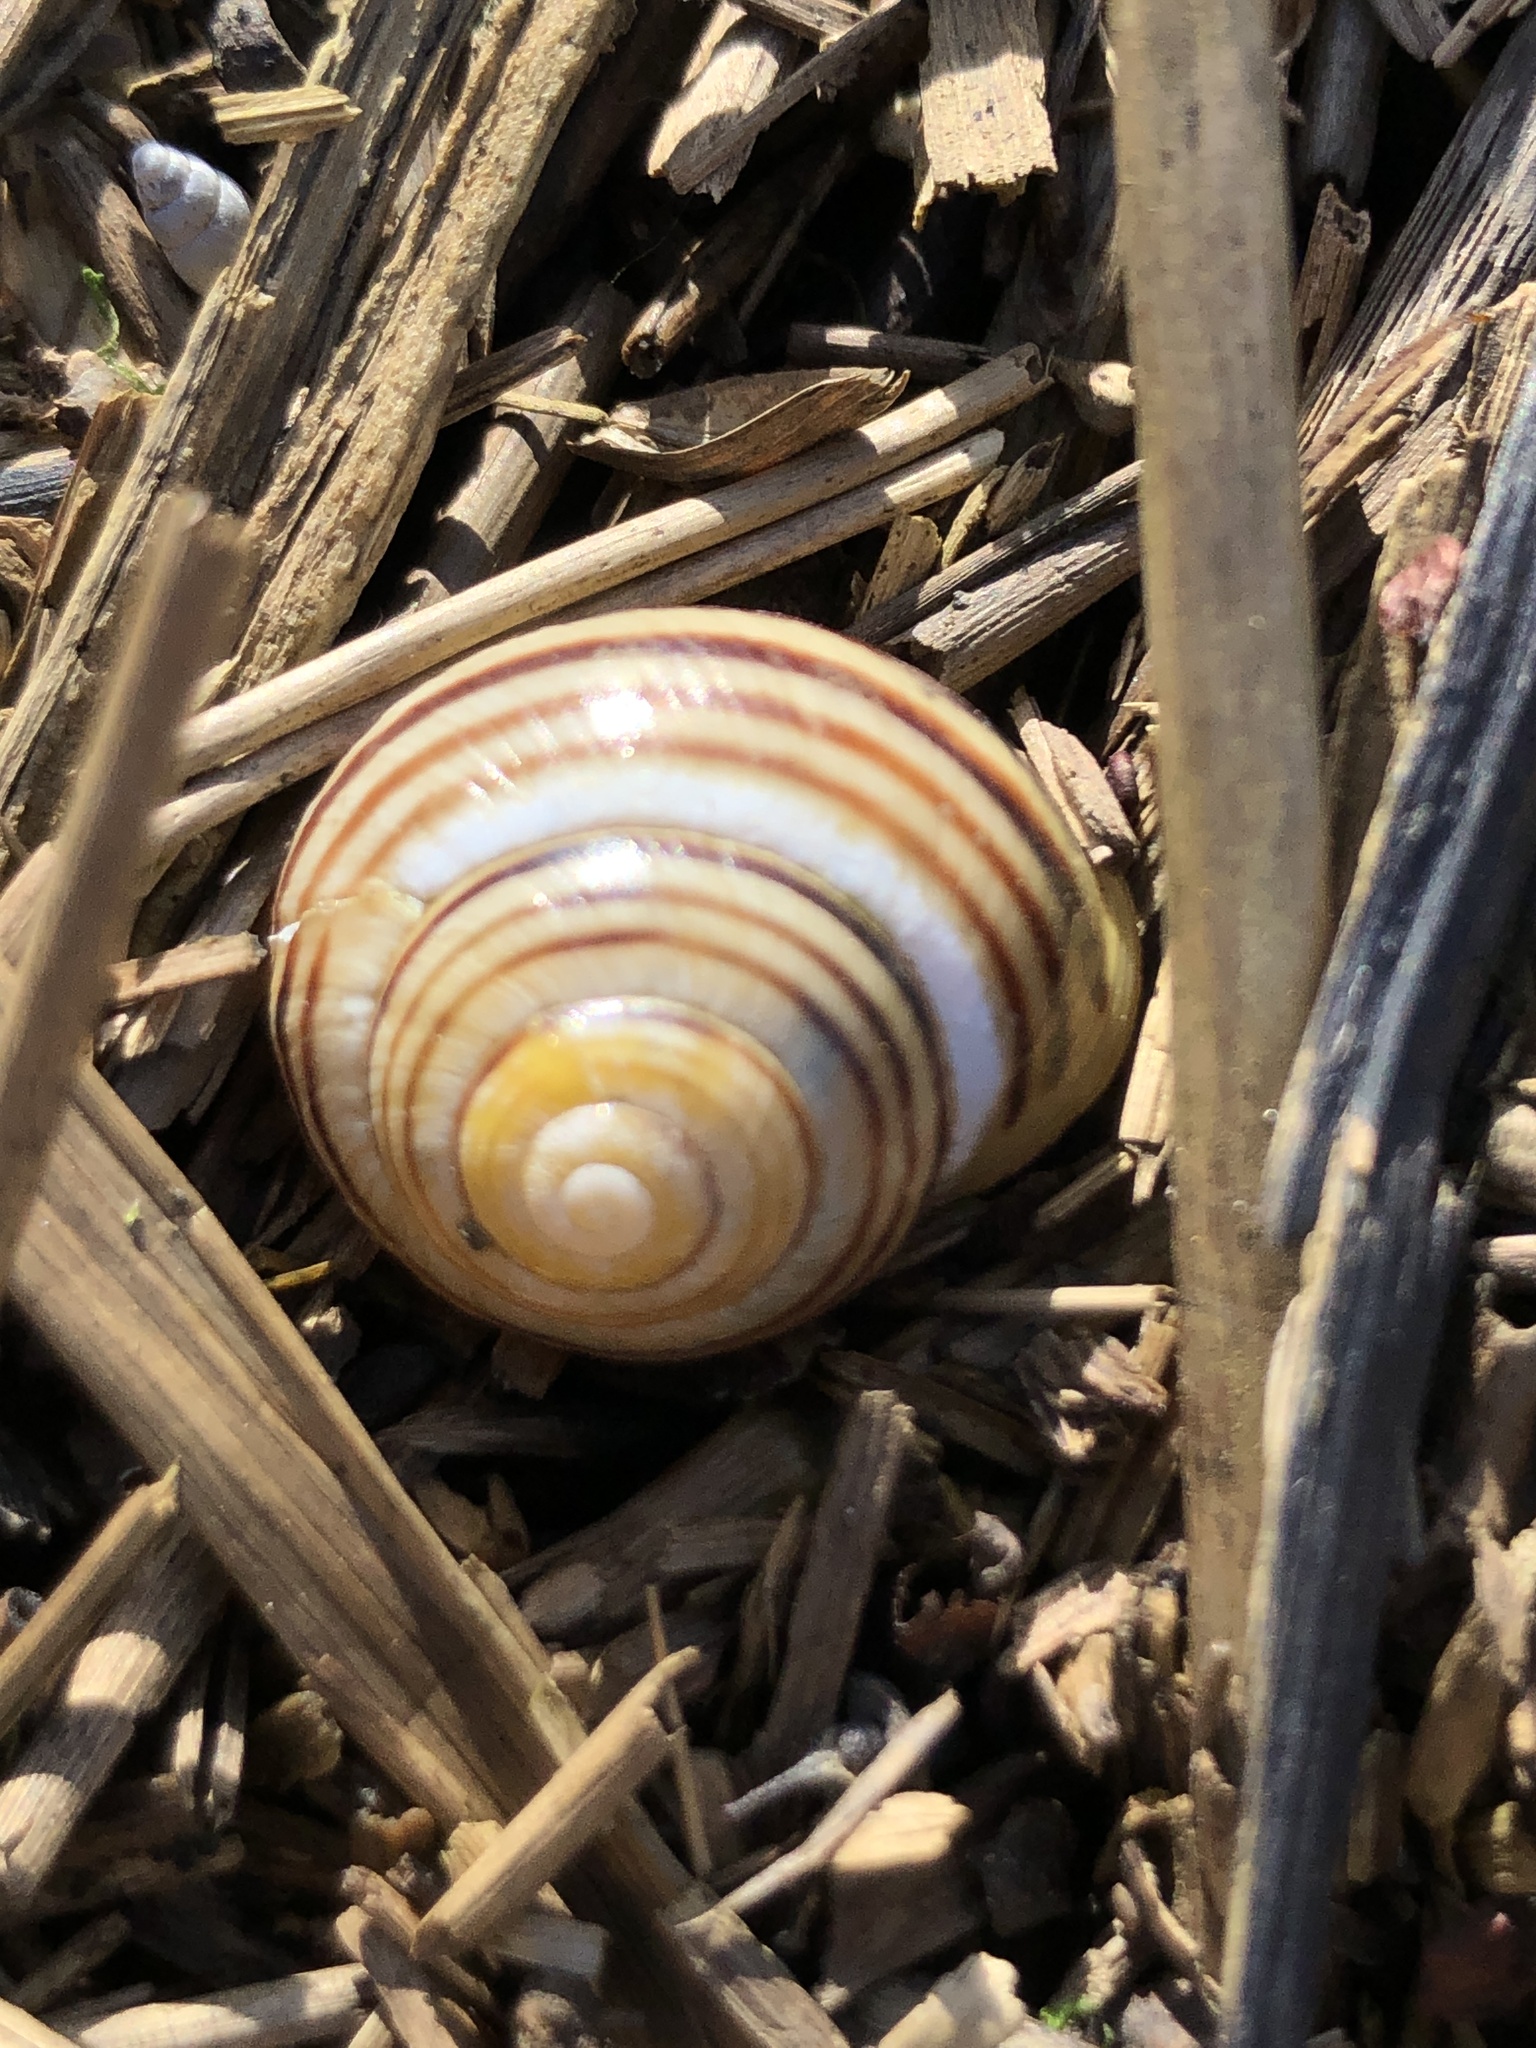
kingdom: Animalia
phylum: Mollusca
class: Gastropoda
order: Stylommatophora
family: Helicidae
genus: Cepaea
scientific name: Cepaea hortensis
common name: White-lip gardensnail
